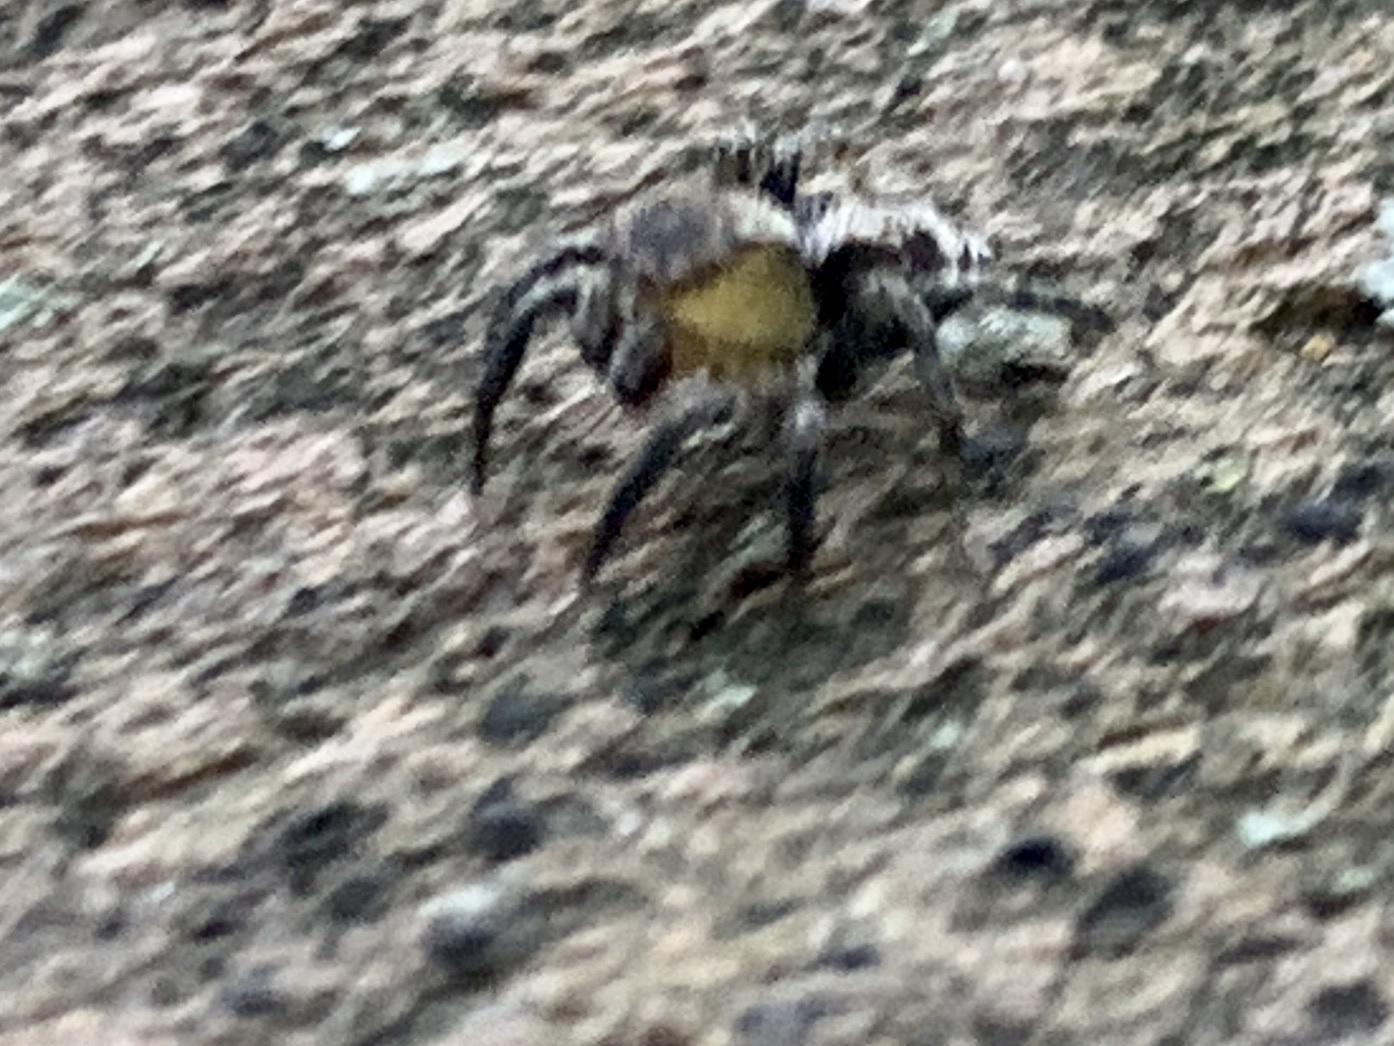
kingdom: Animalia
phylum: Arthropoda
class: Arachnida
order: Araneae
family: Salticidae
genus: Naphrys
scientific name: Naphrys pulex
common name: Flea jumping spider
